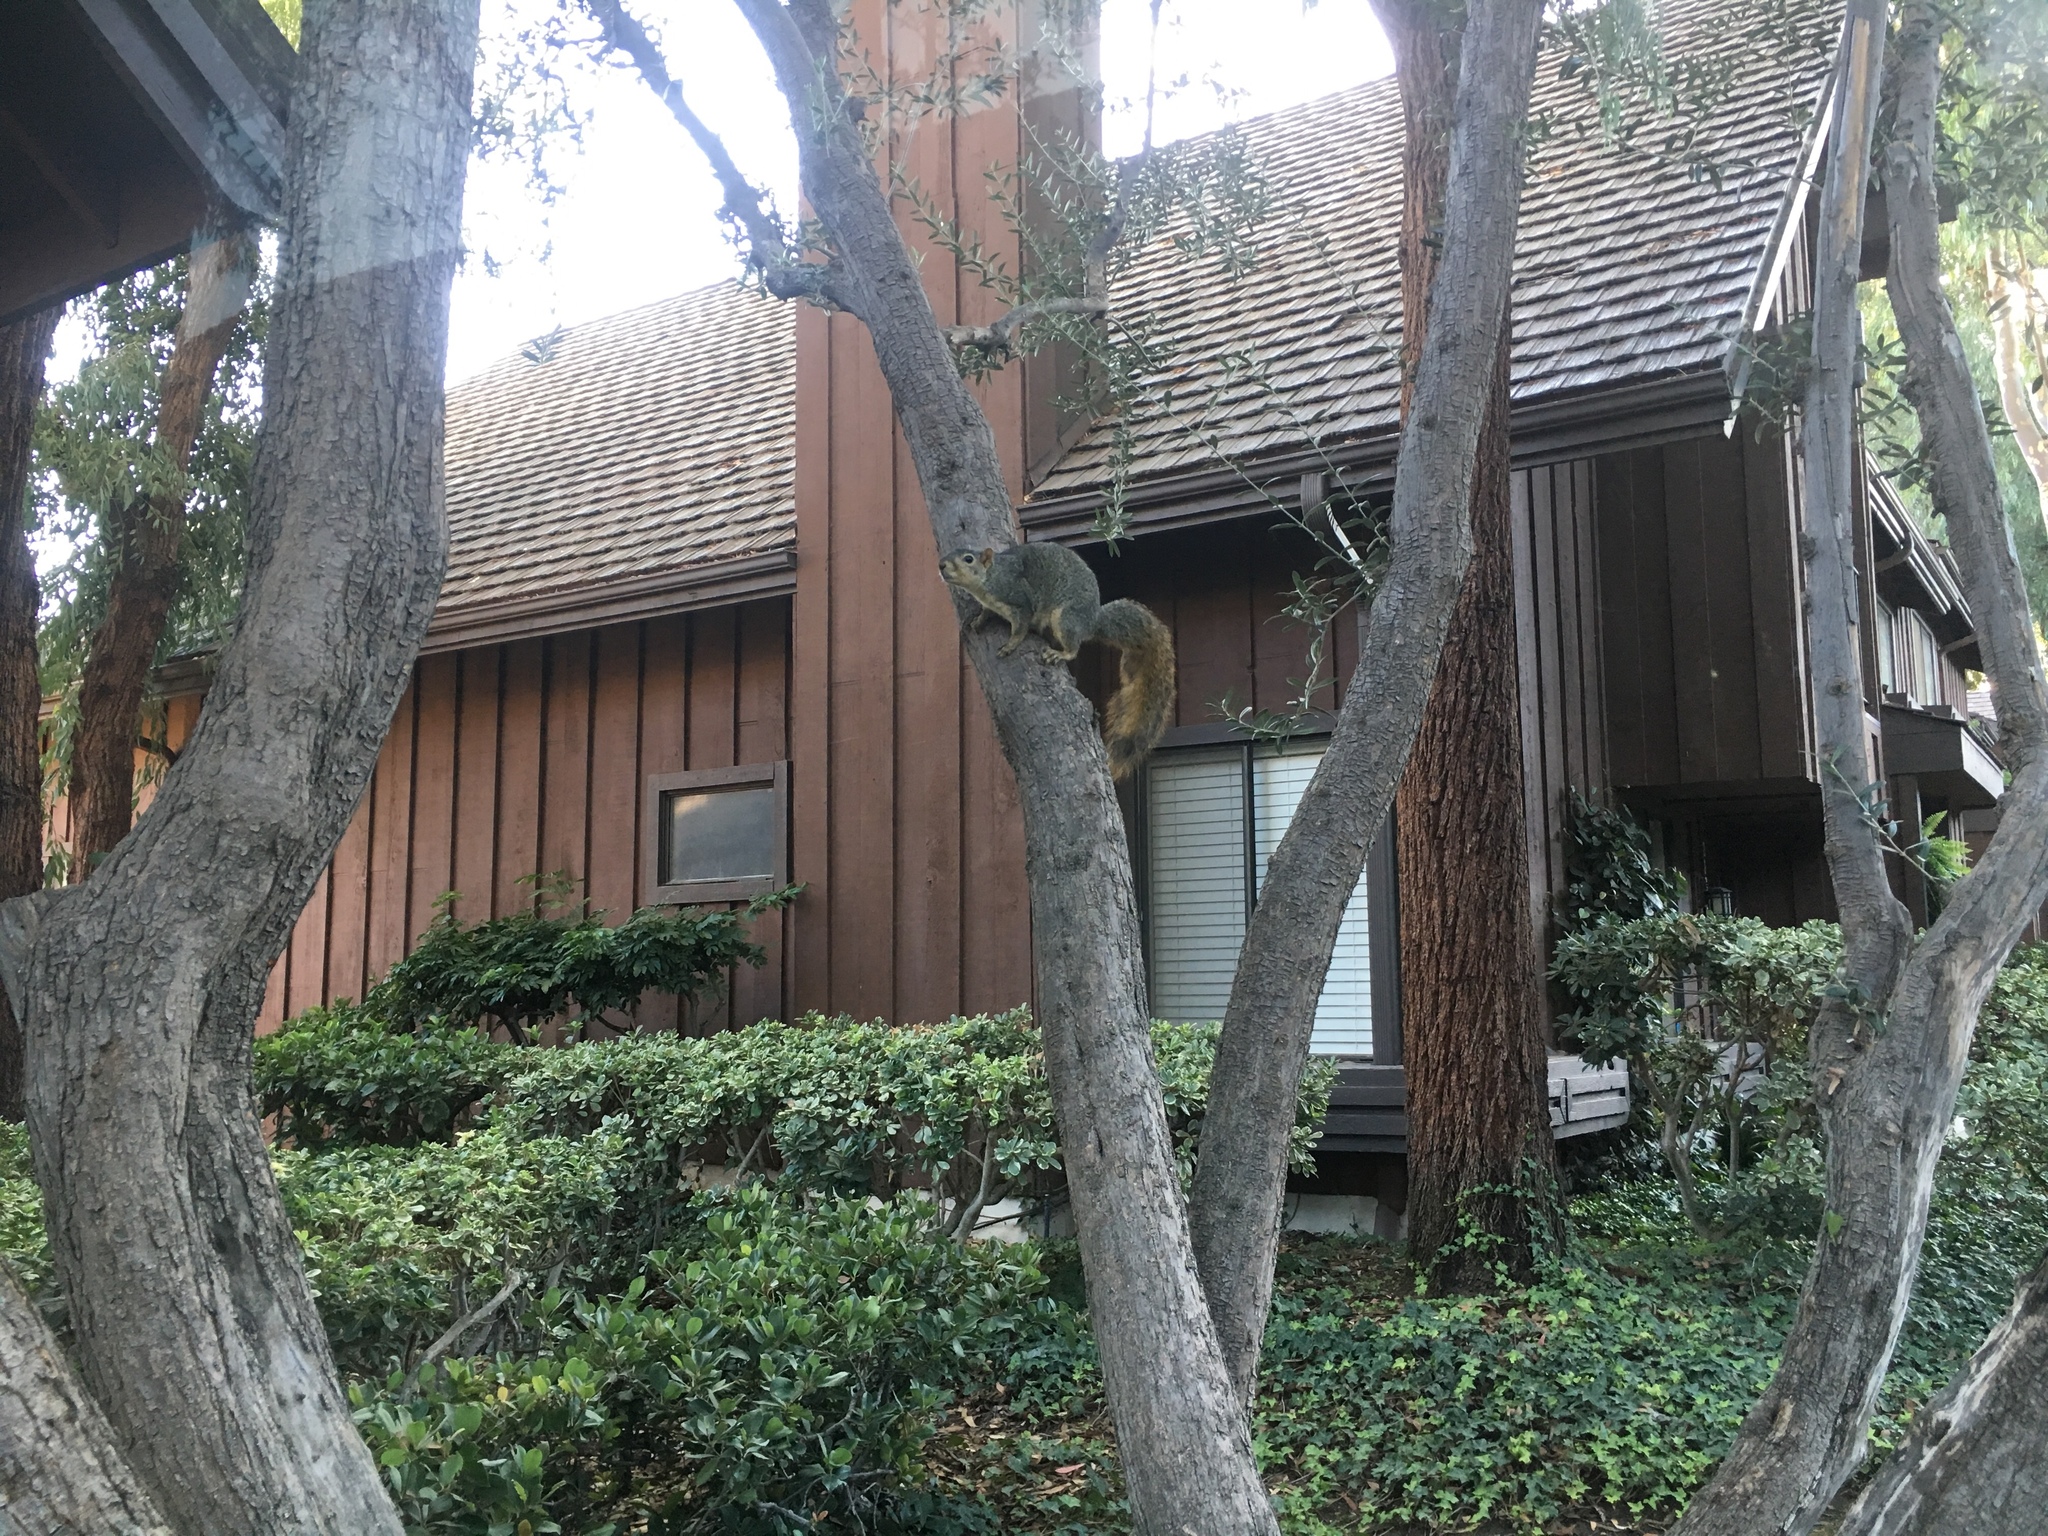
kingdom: Animalia
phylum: Chordata
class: Mammalia
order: Rodentia
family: Sciuridae
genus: Sciurus
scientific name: Sciurus niger
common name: Fox squirrel
